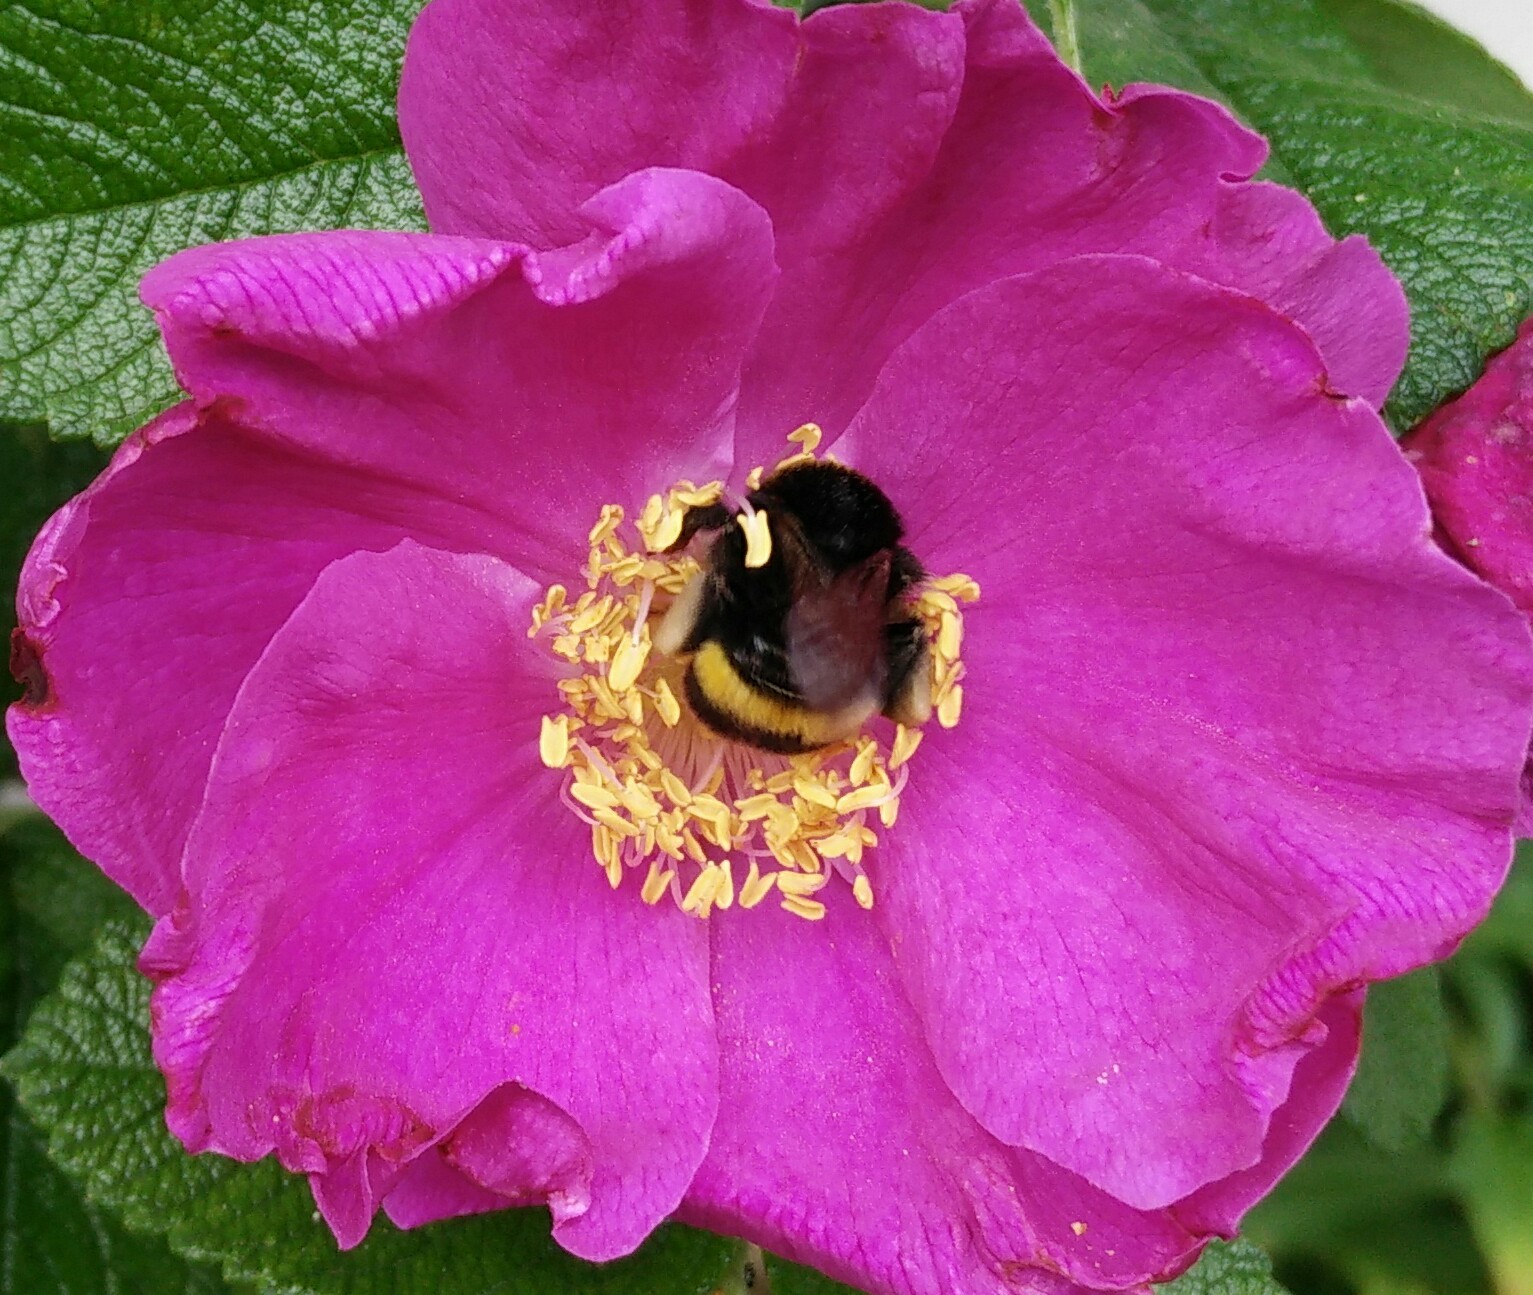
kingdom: Animalia
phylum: Arthropoda
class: Insecta
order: Hymenoptera
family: Apidae
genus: Bombus
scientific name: Bombus terrestris
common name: Buff-tailed bumblebee
